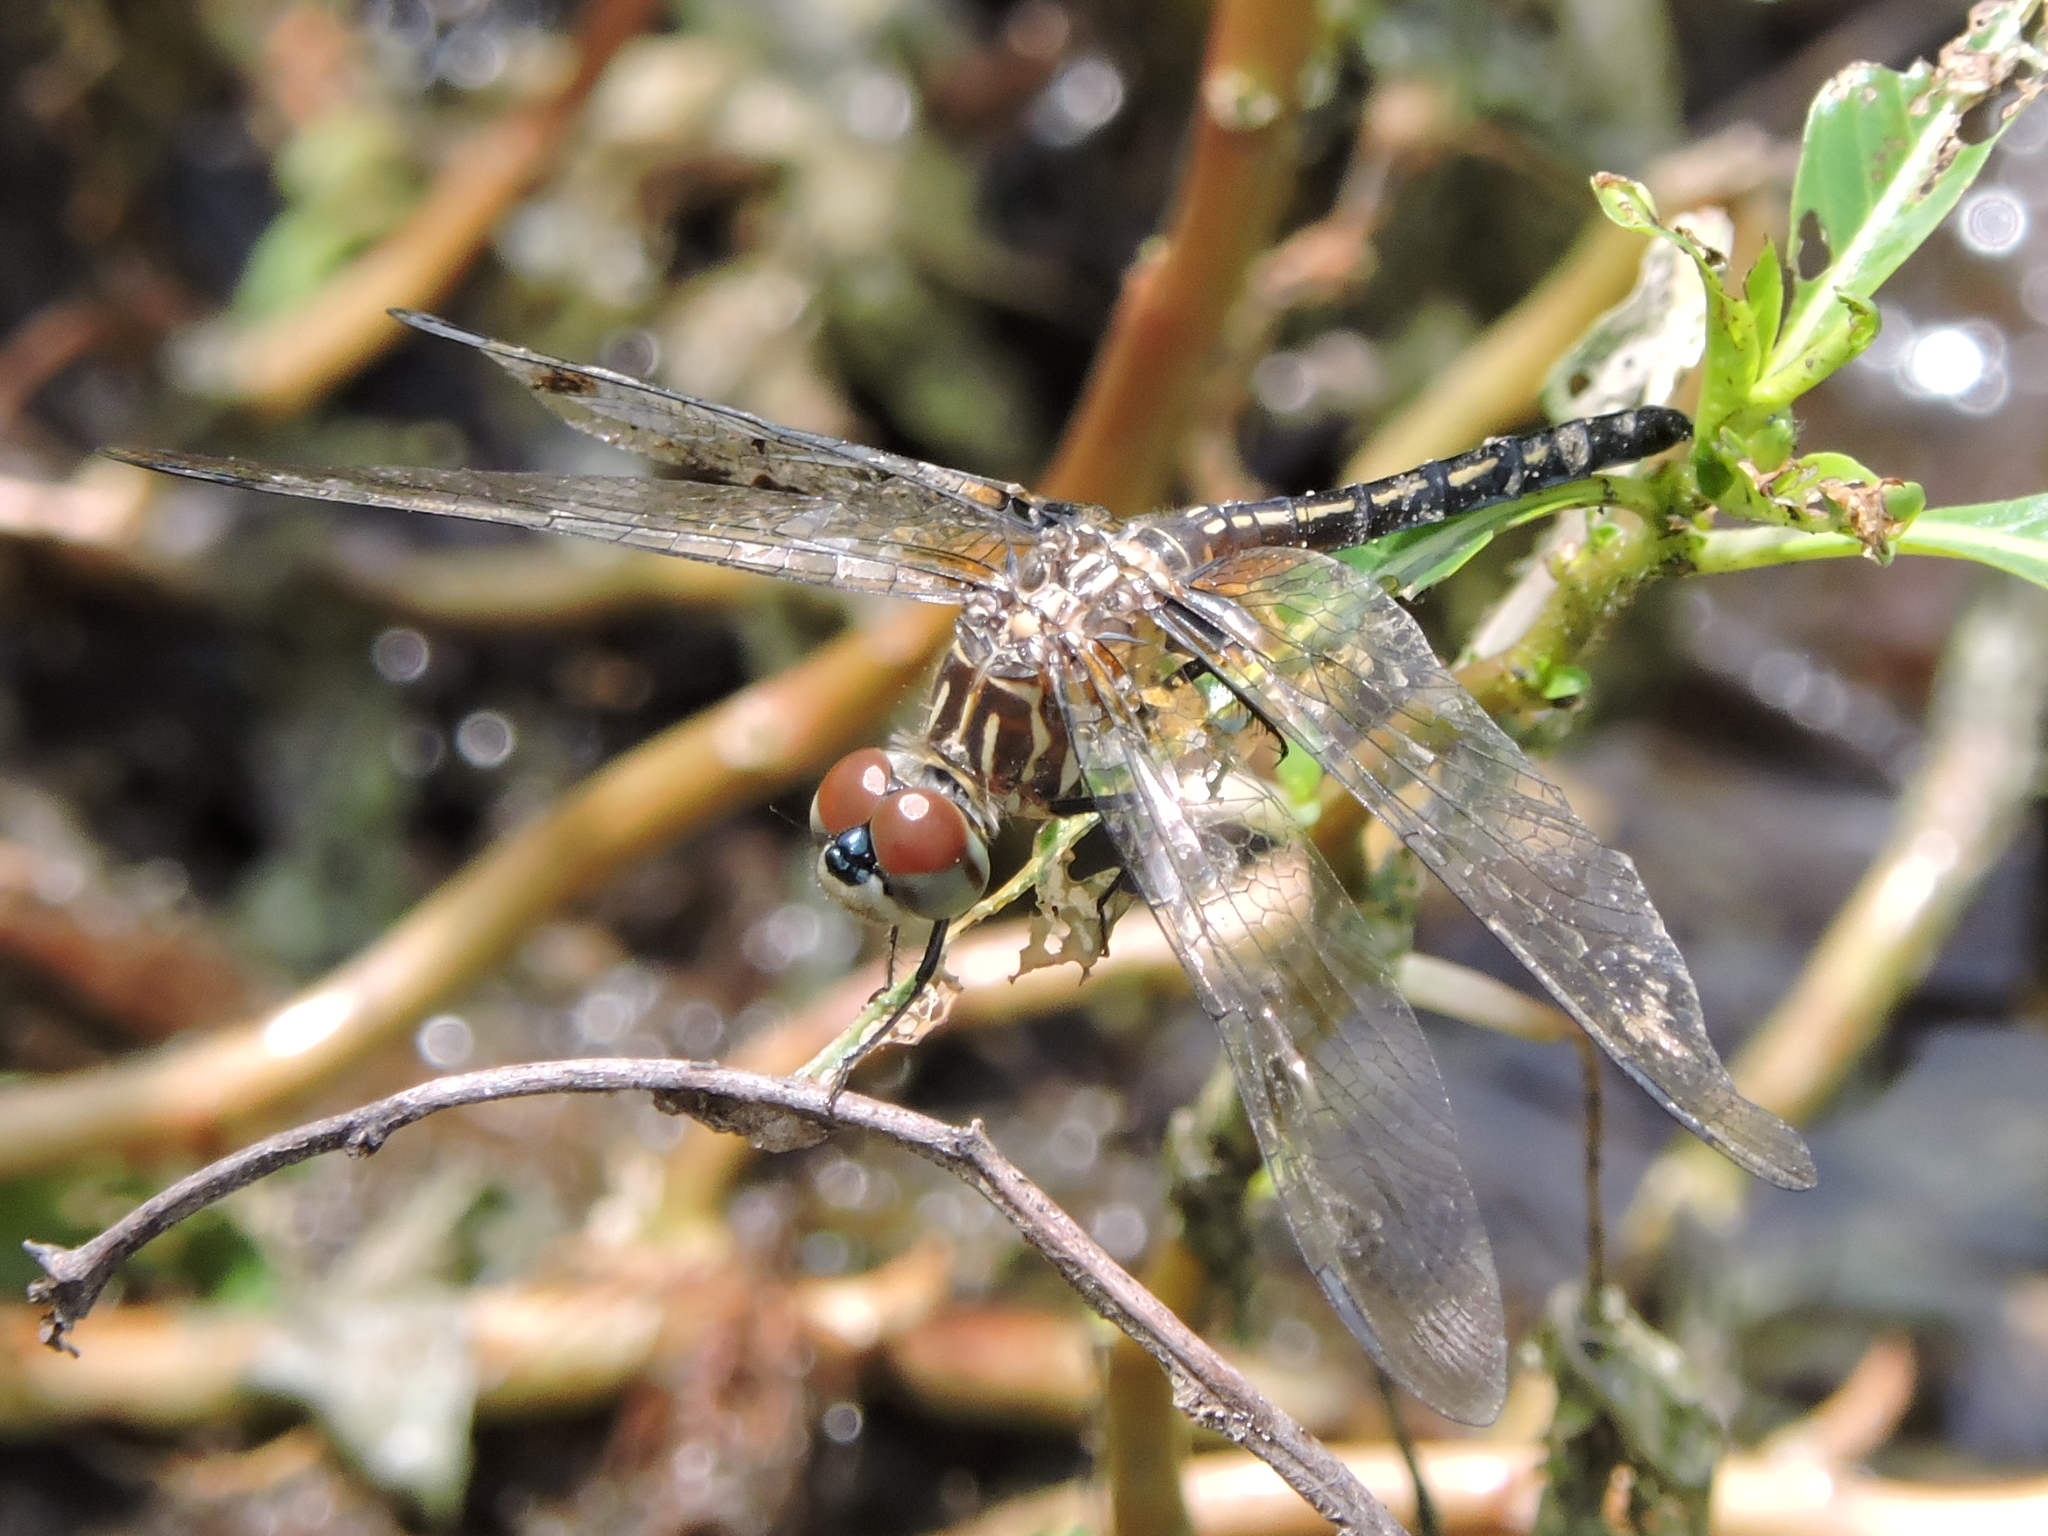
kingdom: Animalia
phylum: Arthropoda
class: Insecta
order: Odonata
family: Libellulidae
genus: Pachydiplax
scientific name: Pachydiplax longipennis
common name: Blue dasher
